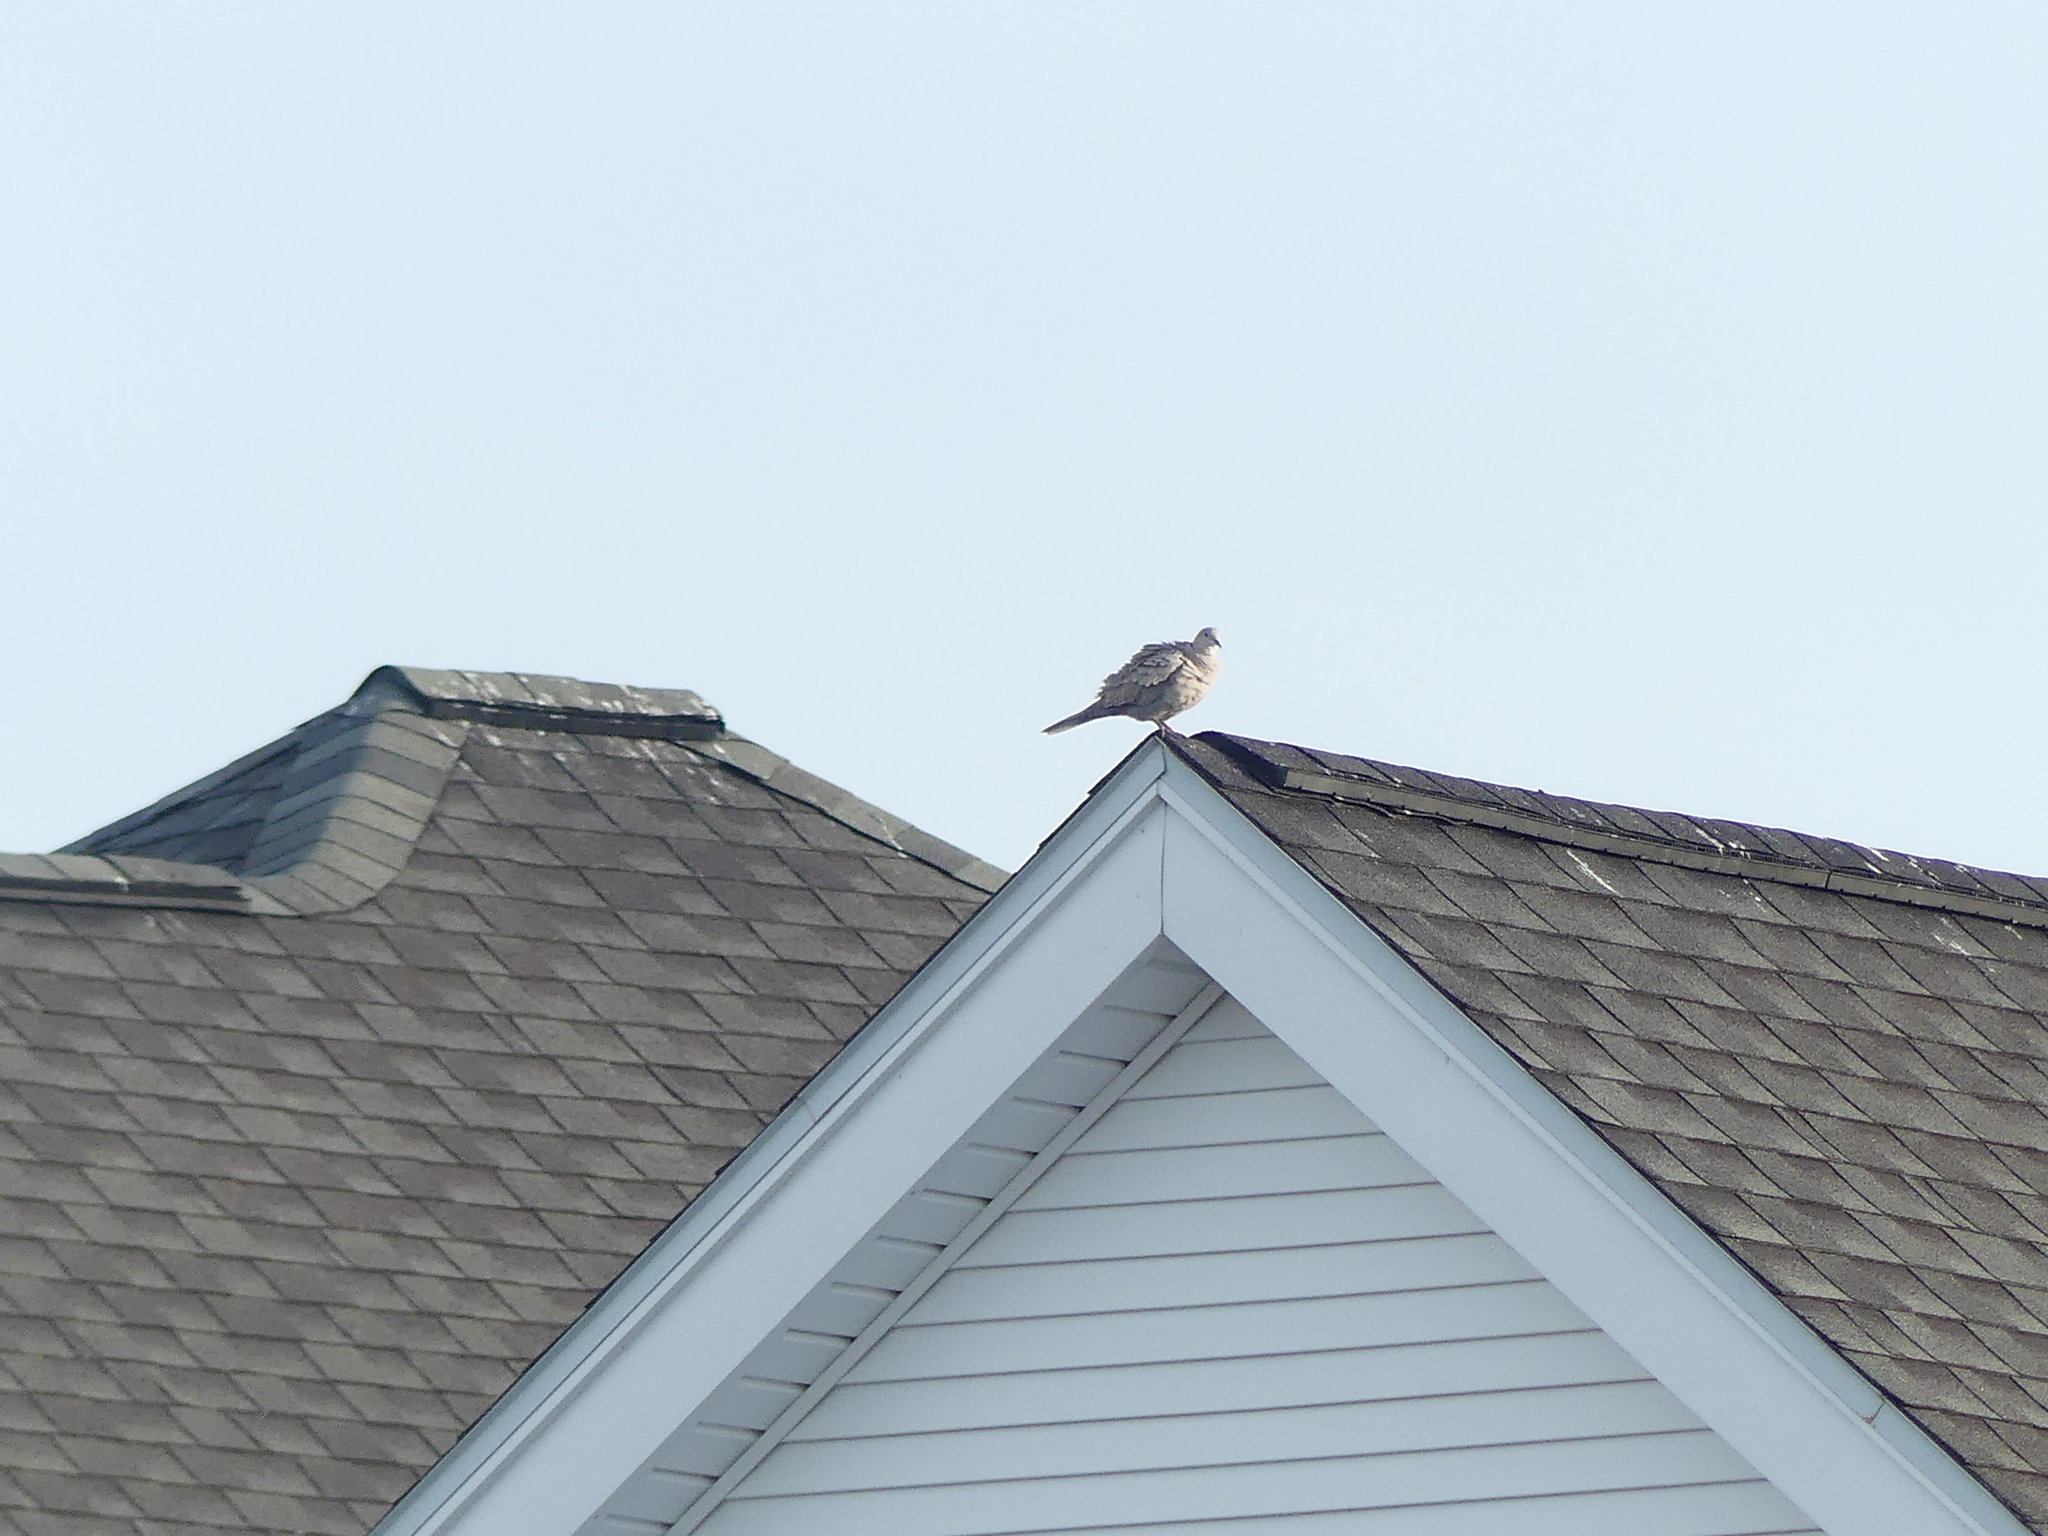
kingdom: Animalia
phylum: Chordata
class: Aves
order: Columbiformes
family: Columbidae
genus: Zenaida
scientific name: Zenaida macroura
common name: Mourning dove
